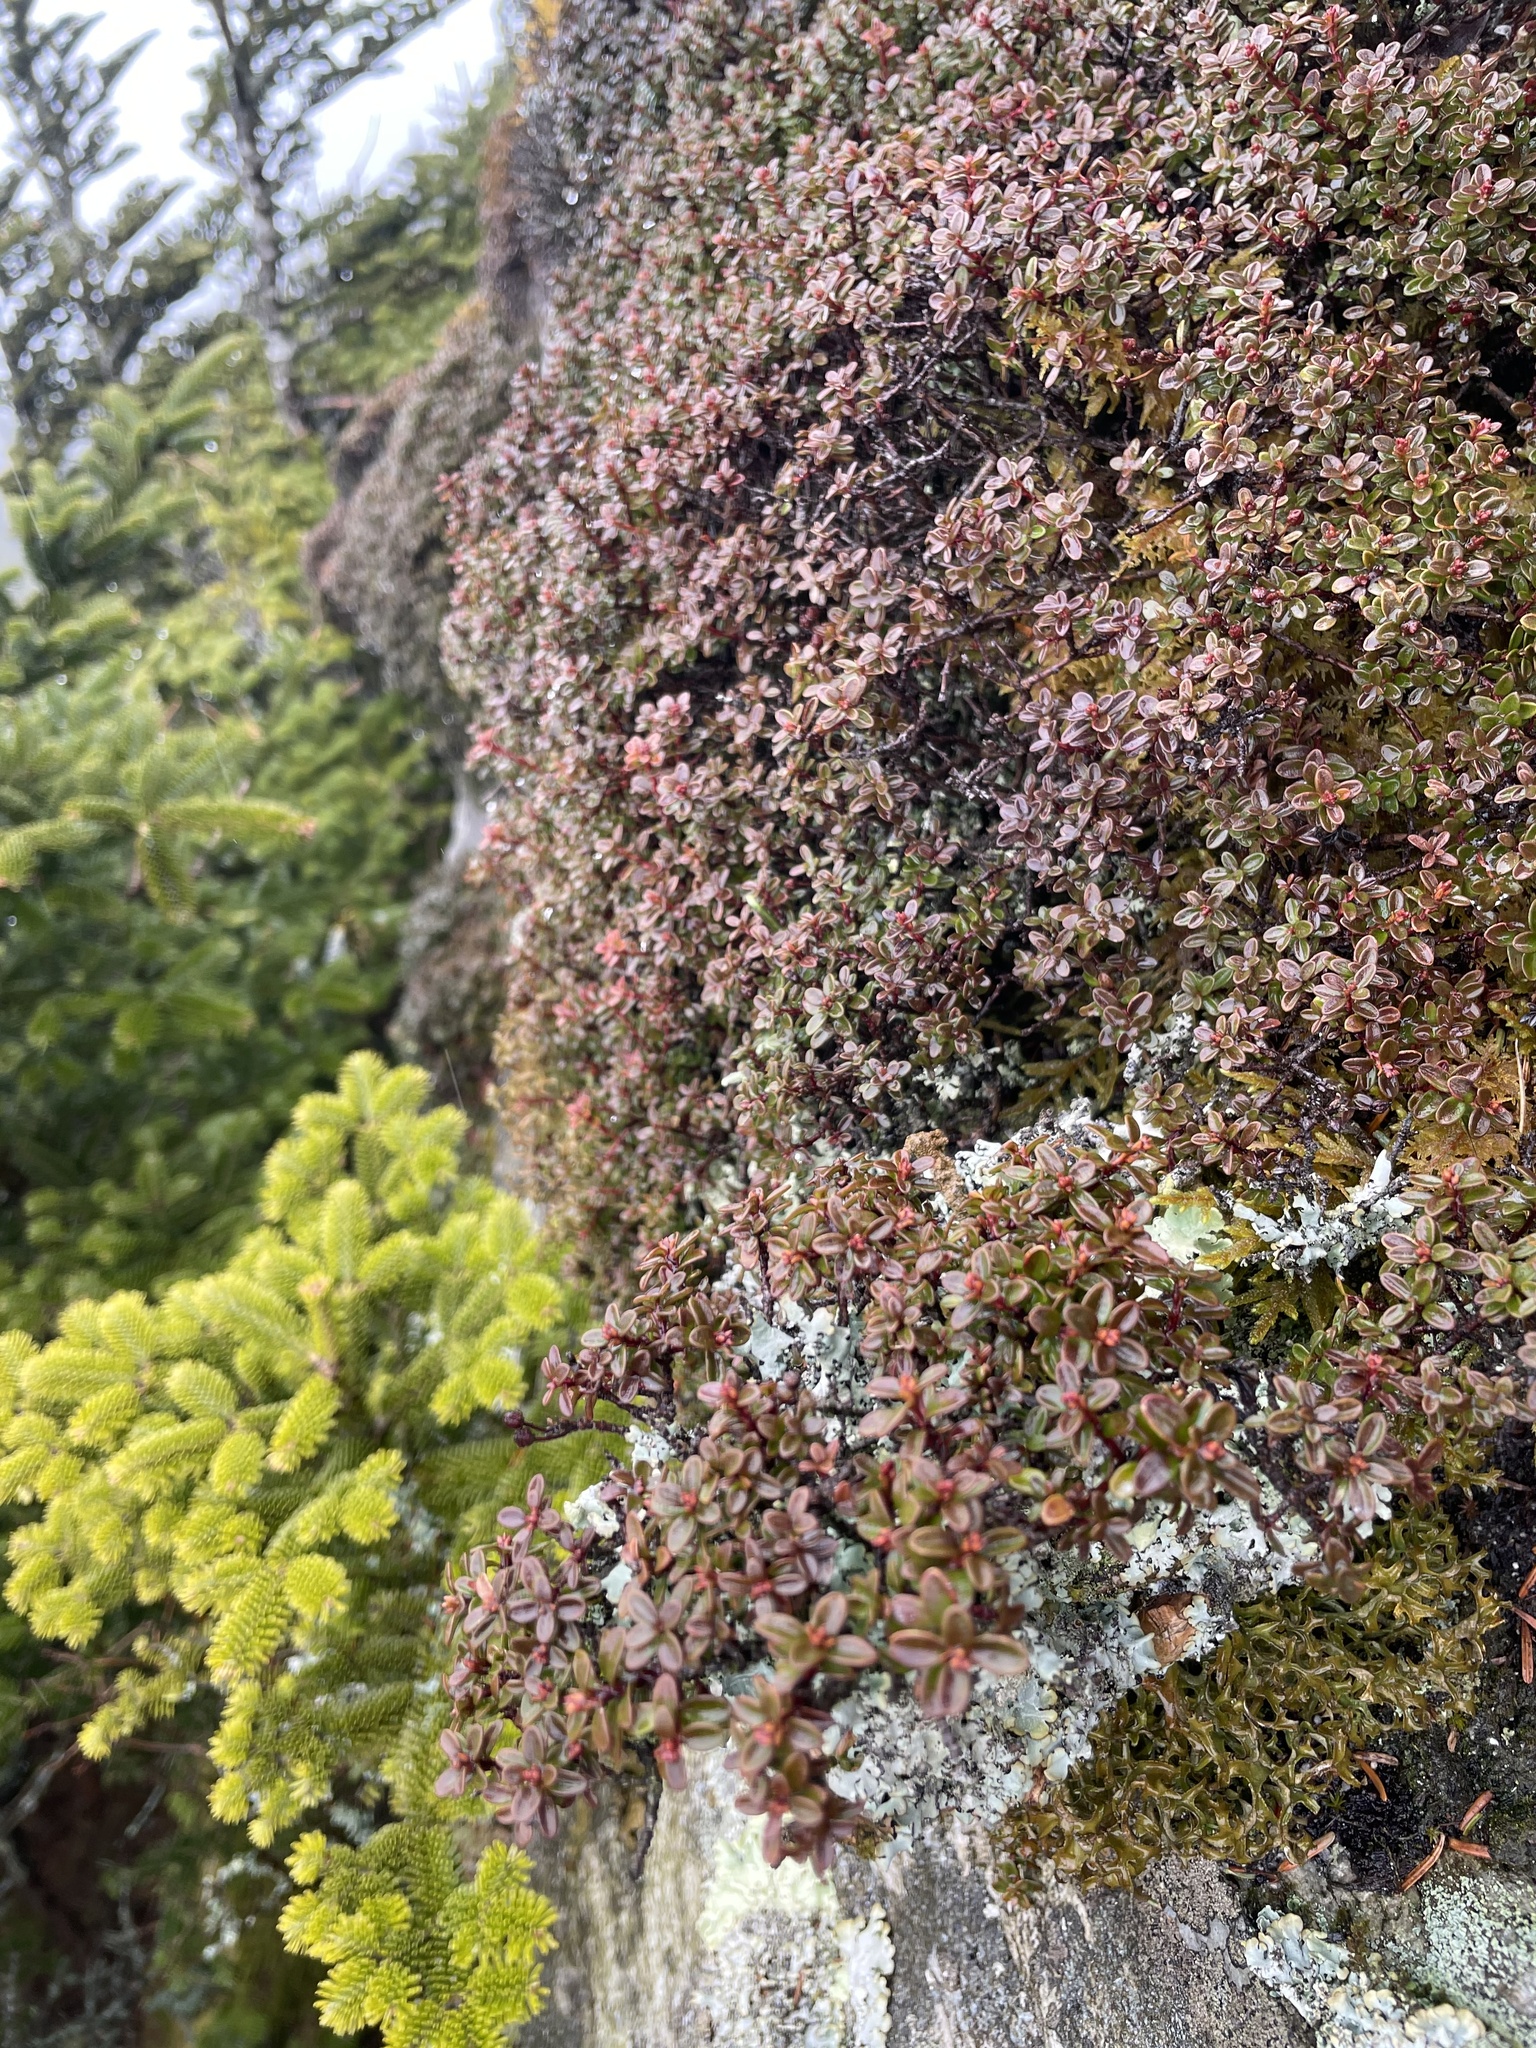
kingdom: Plantae
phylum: Tracheophyta
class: Magnoliopsida
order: Ericales
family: Ericaceae
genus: Kalmia
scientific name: Kalmia buxifolia
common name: Sandmyrtle
